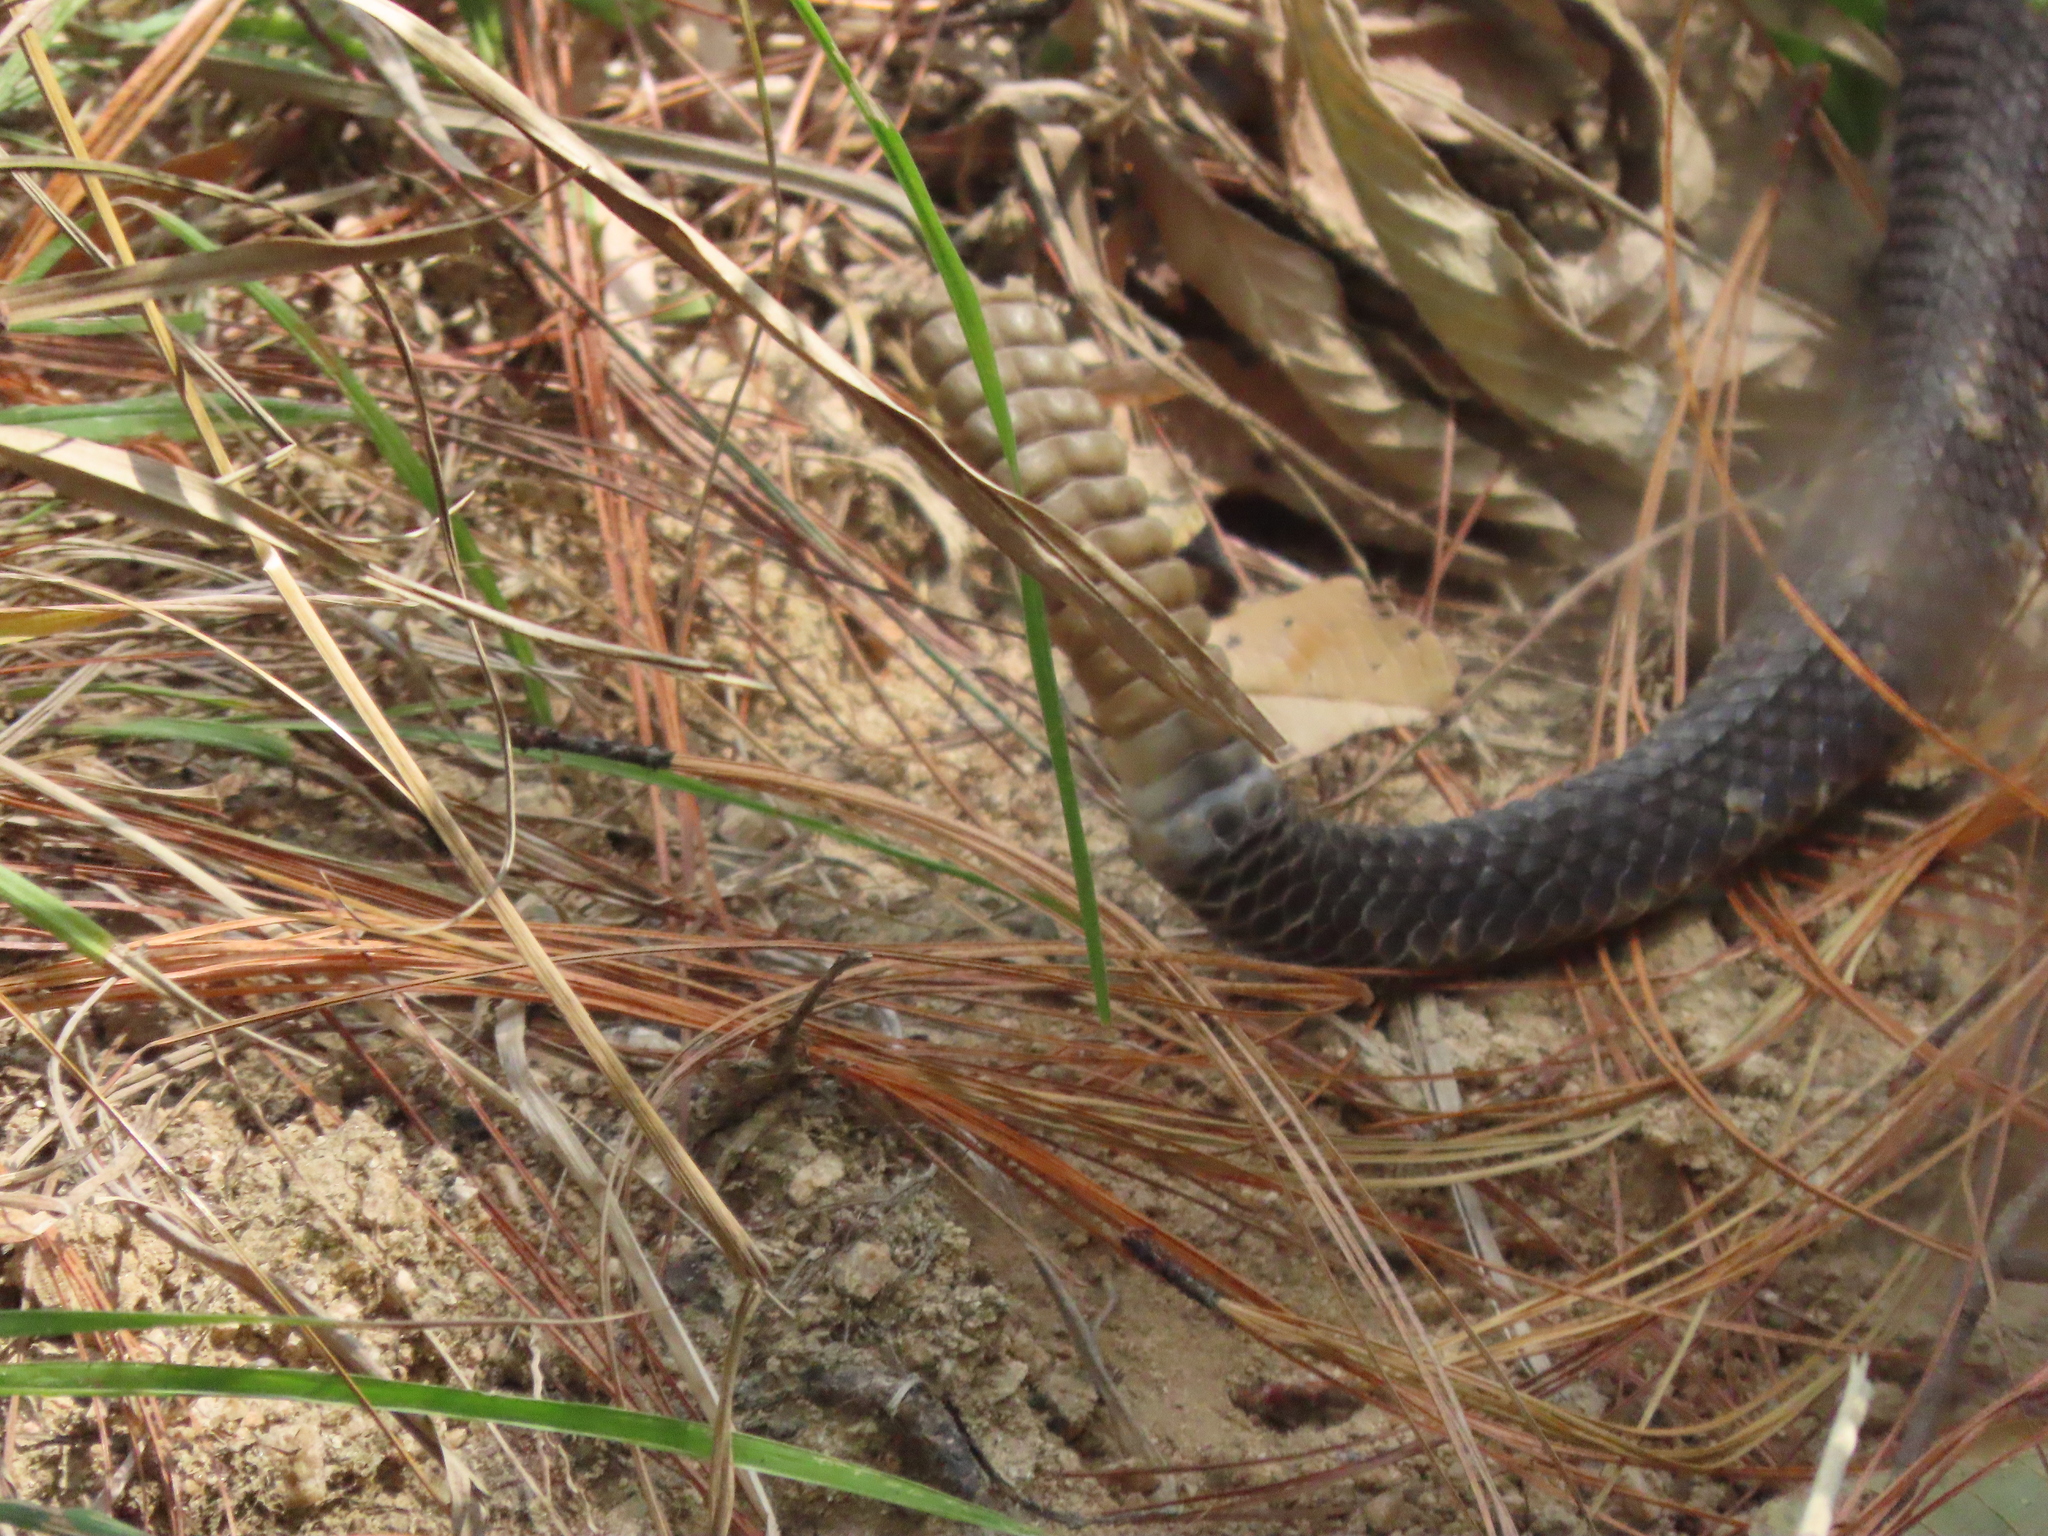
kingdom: Animalia
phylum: Chordata
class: Squamata
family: Viperidae
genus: Crotalus
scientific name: Crotalus ehecatl
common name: Tehuantepec isthmus neotropical rattlesnake
